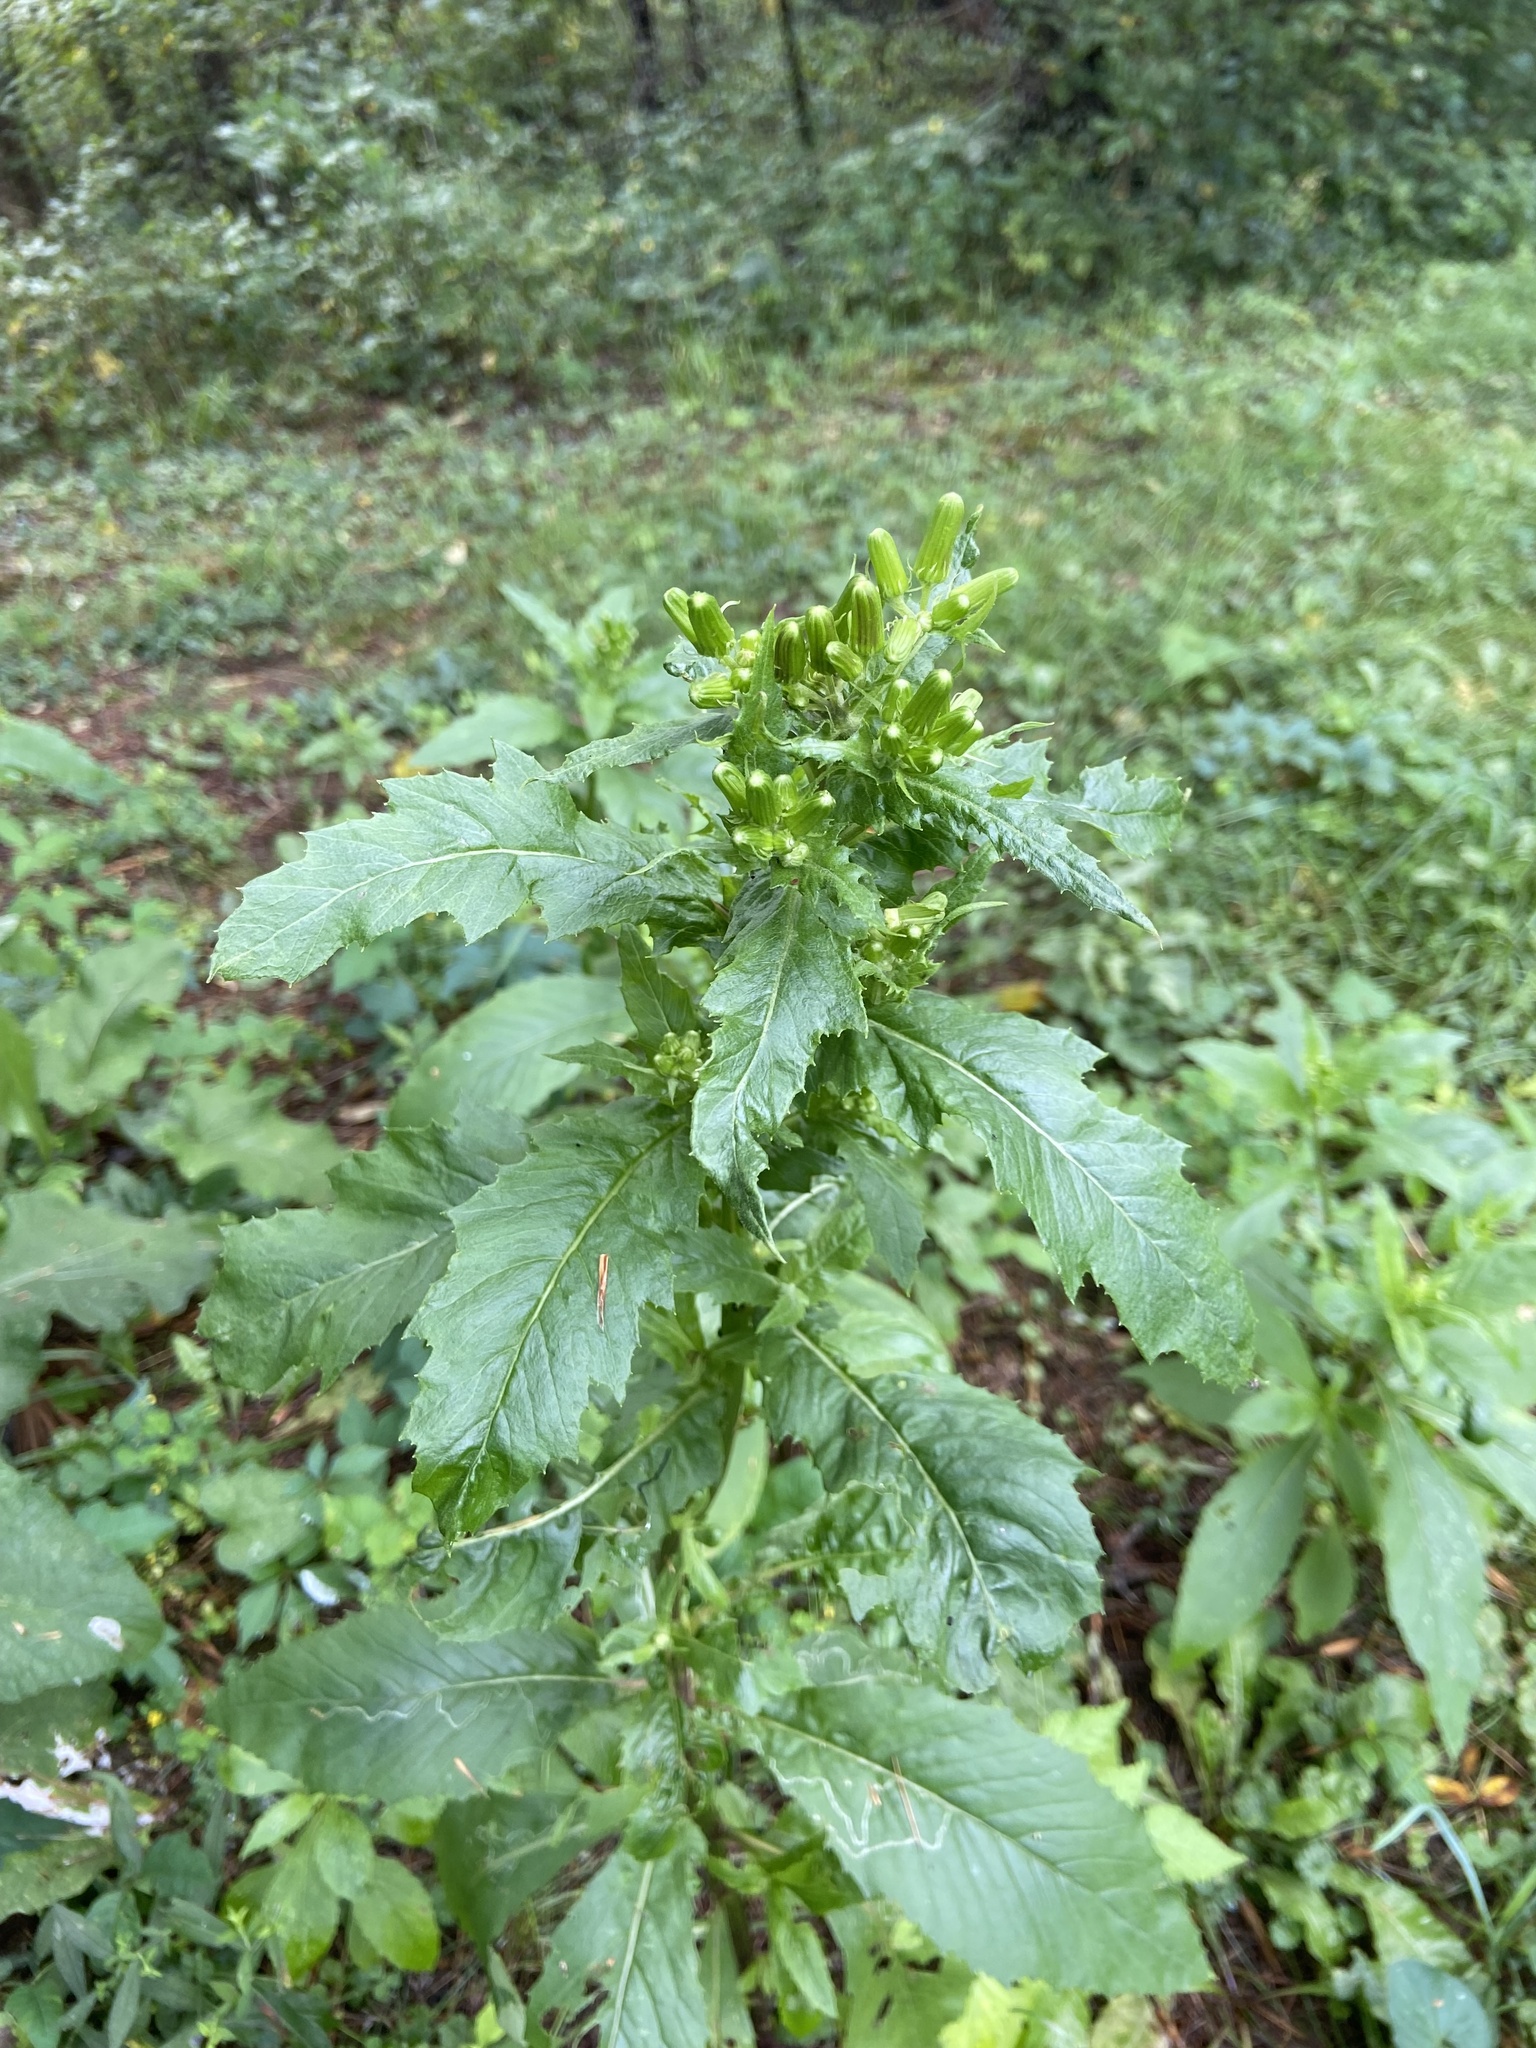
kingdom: Plantae
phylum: Tracheophyta
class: Magnoliopsida
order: Asterales
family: Asteraceae
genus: Erechtites
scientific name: Erechtites hieraciifolius
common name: American burnweed
